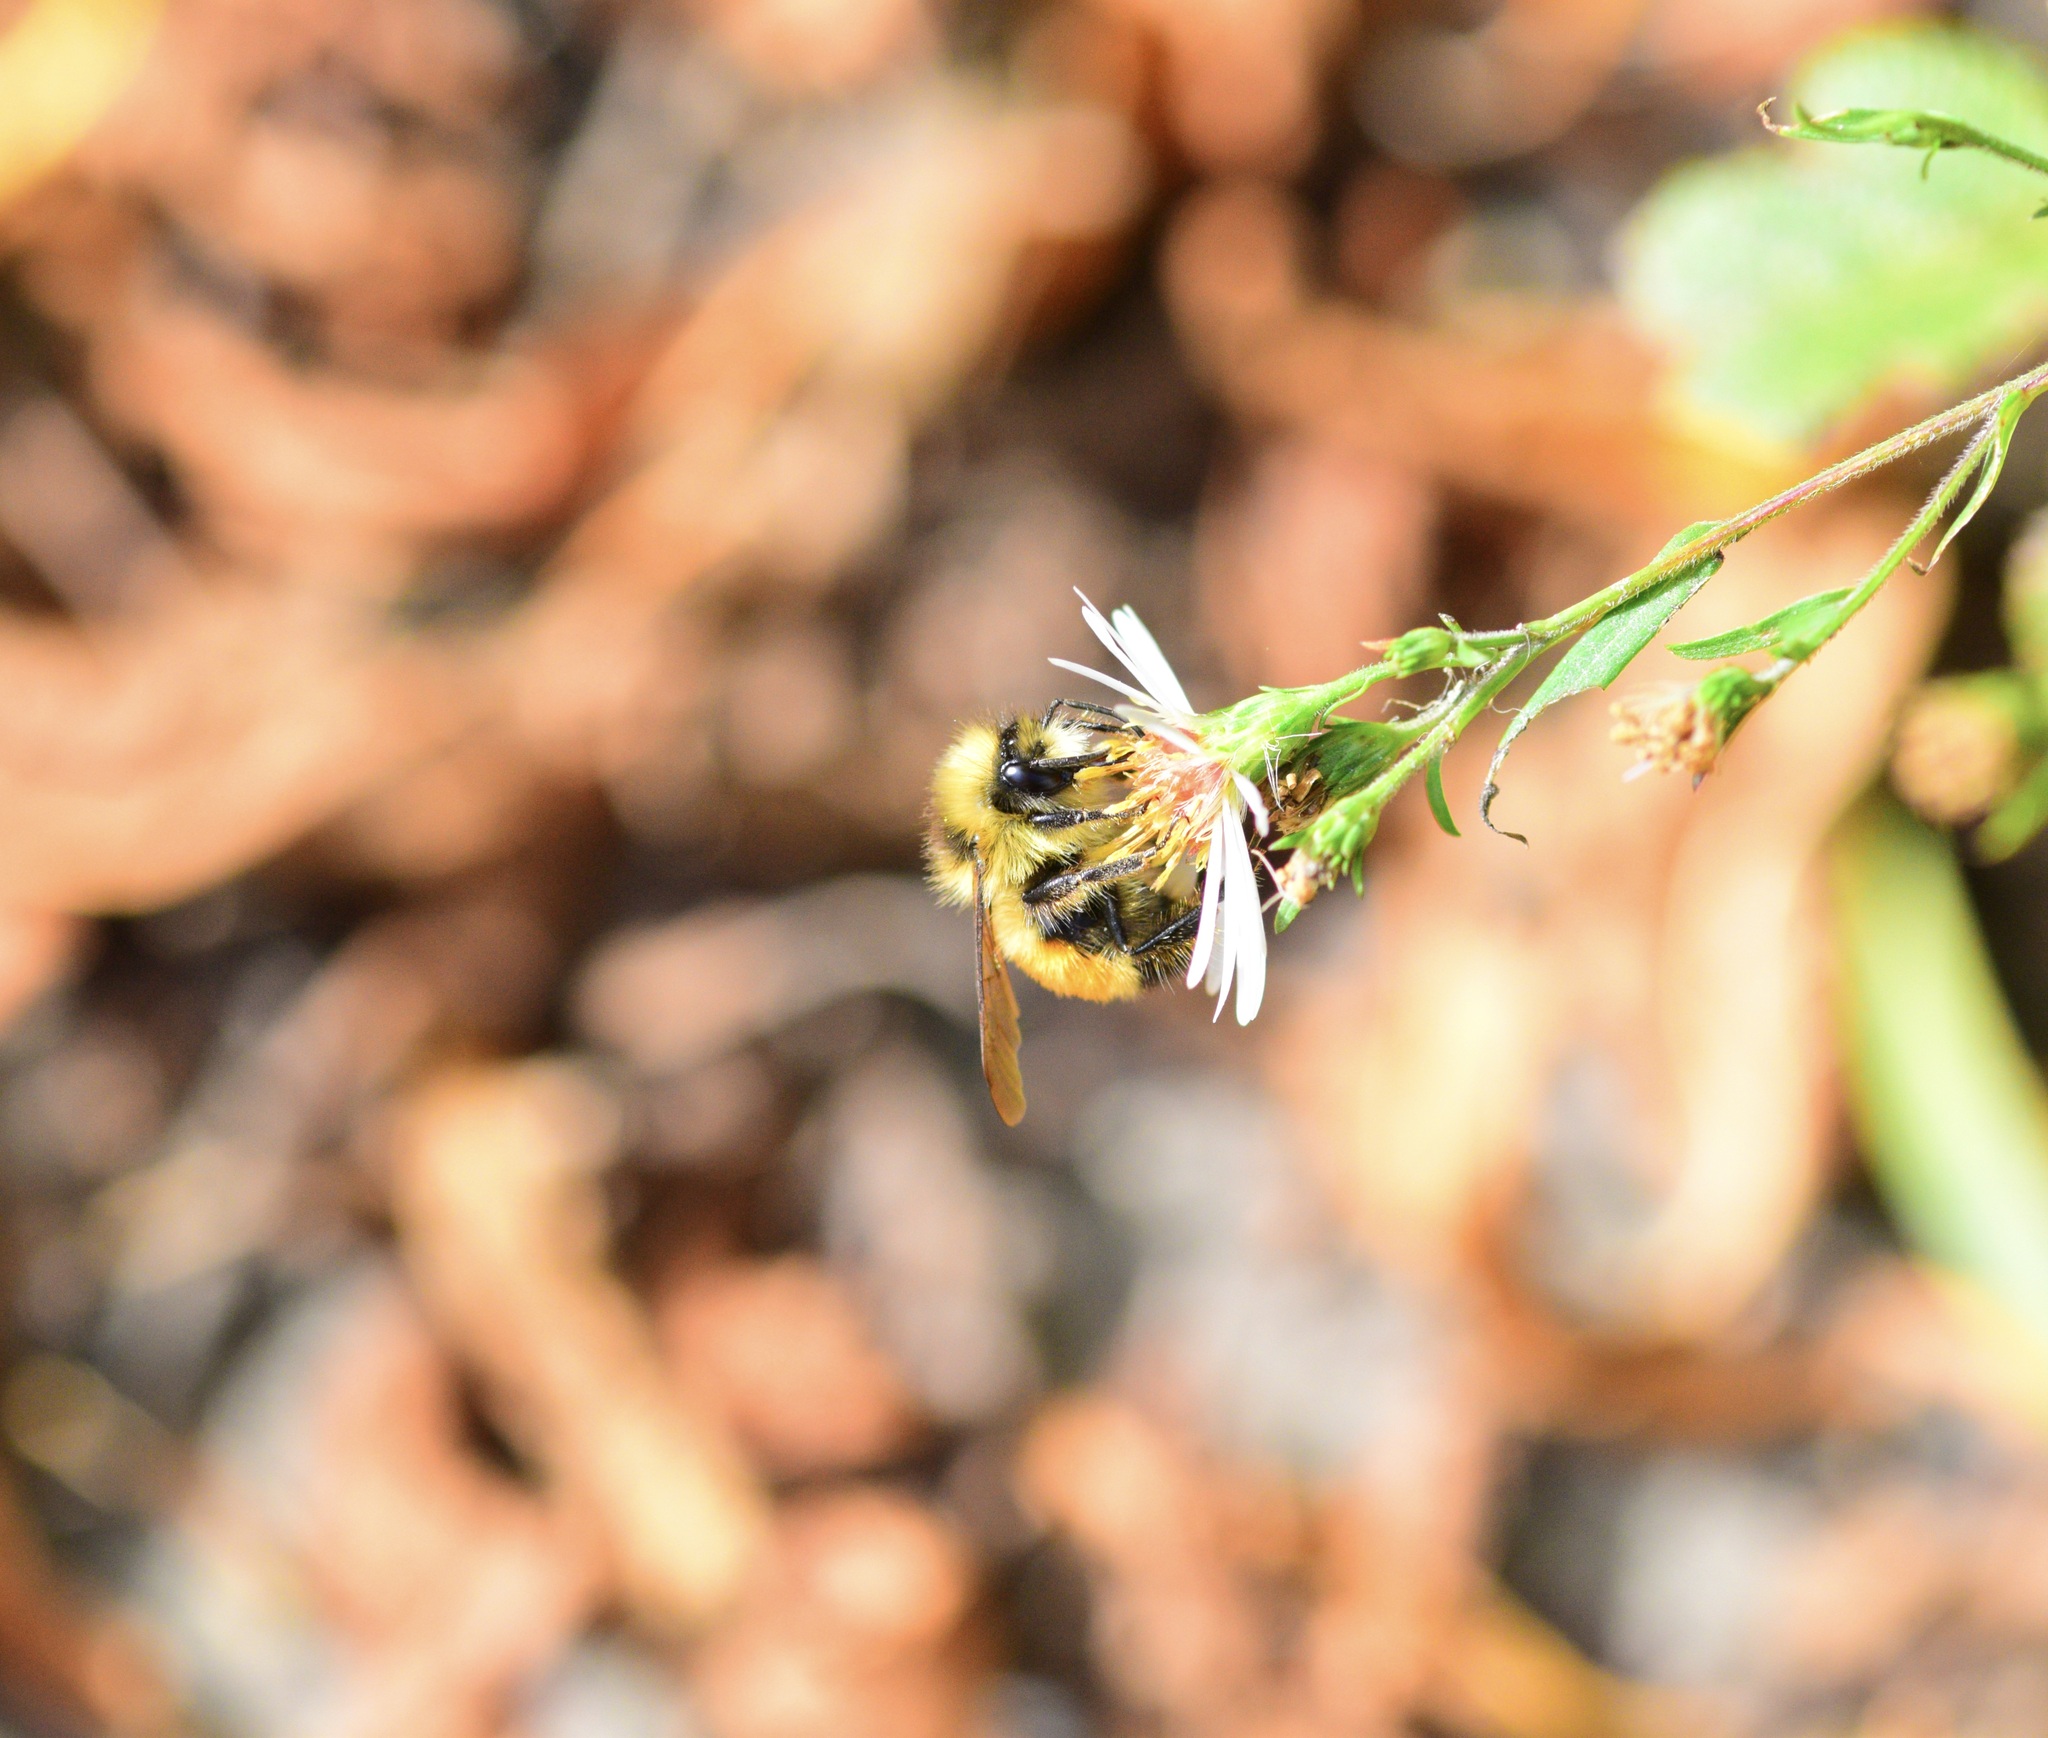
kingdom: Animalia
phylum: Arthropoda
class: Insecta
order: Hymenoptera
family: Apidae
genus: Bombus
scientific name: Bombus ternarius
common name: Tri-colored bumble bee
